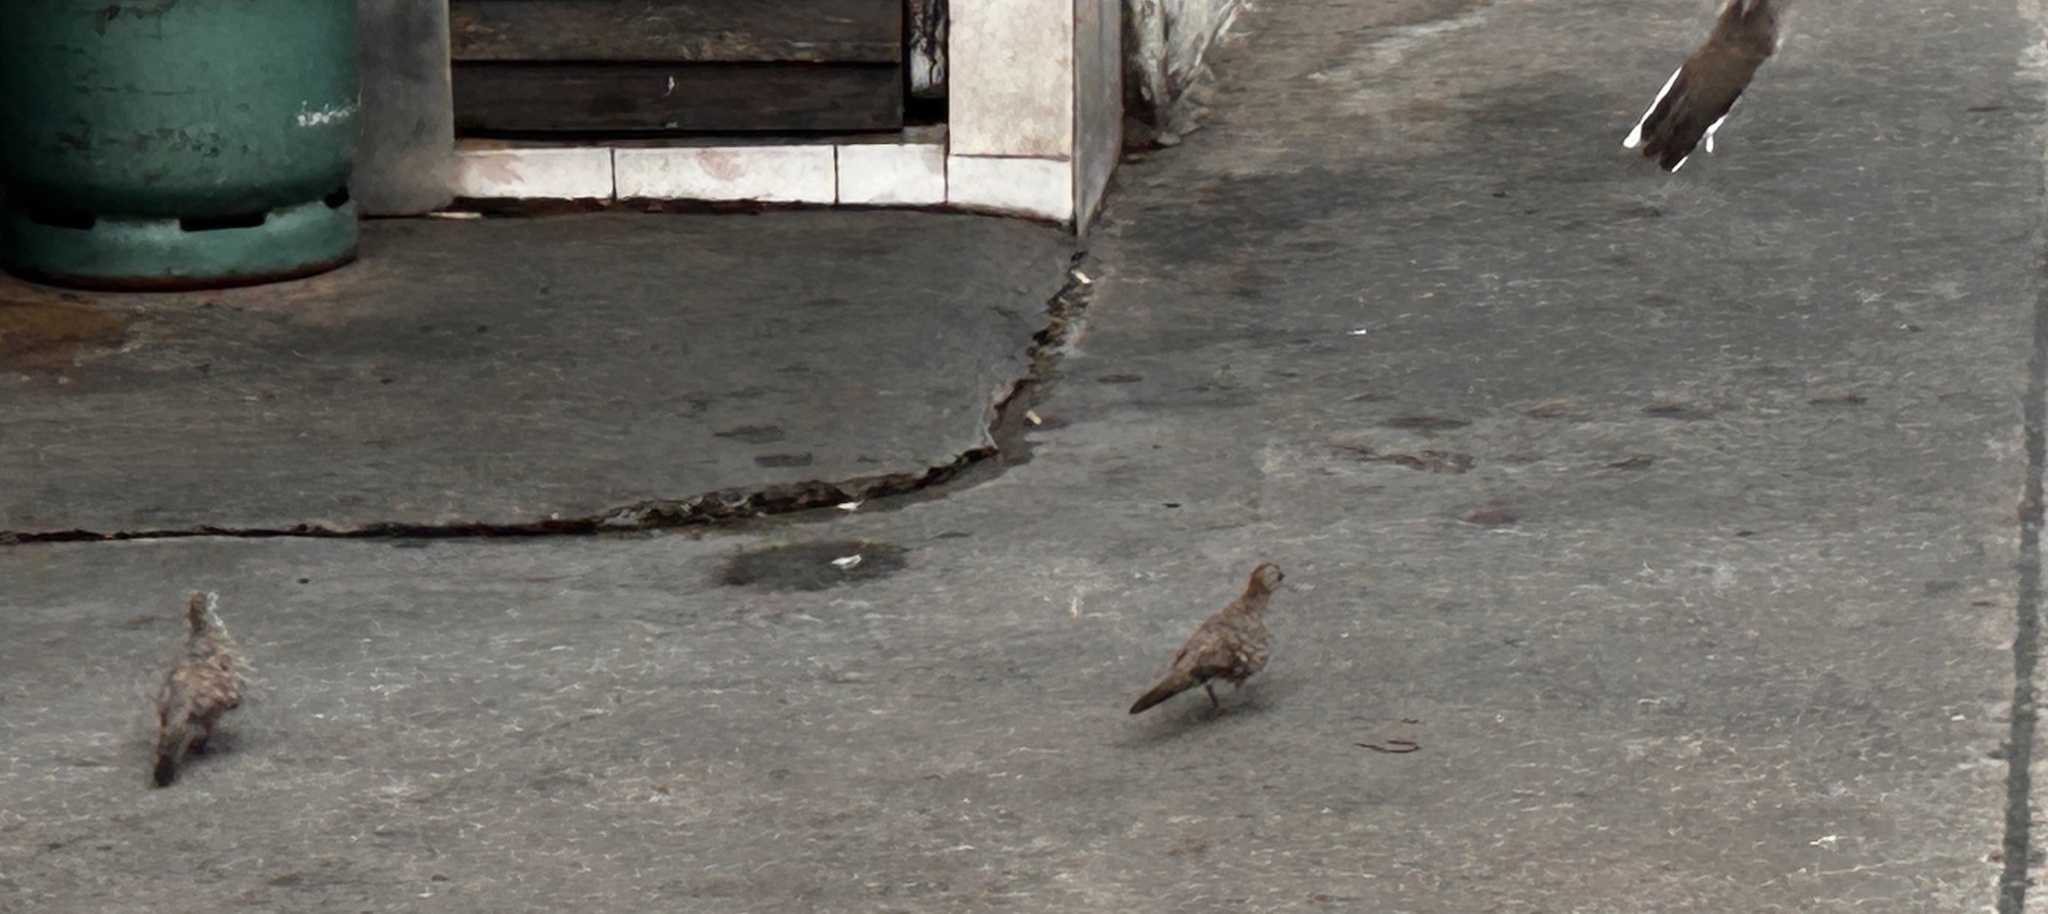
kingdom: Animalia
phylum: Chordata
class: Aves
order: Columbiformes
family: Columbidae
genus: Geopelia
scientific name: Geopelia striata
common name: Zebra dove
